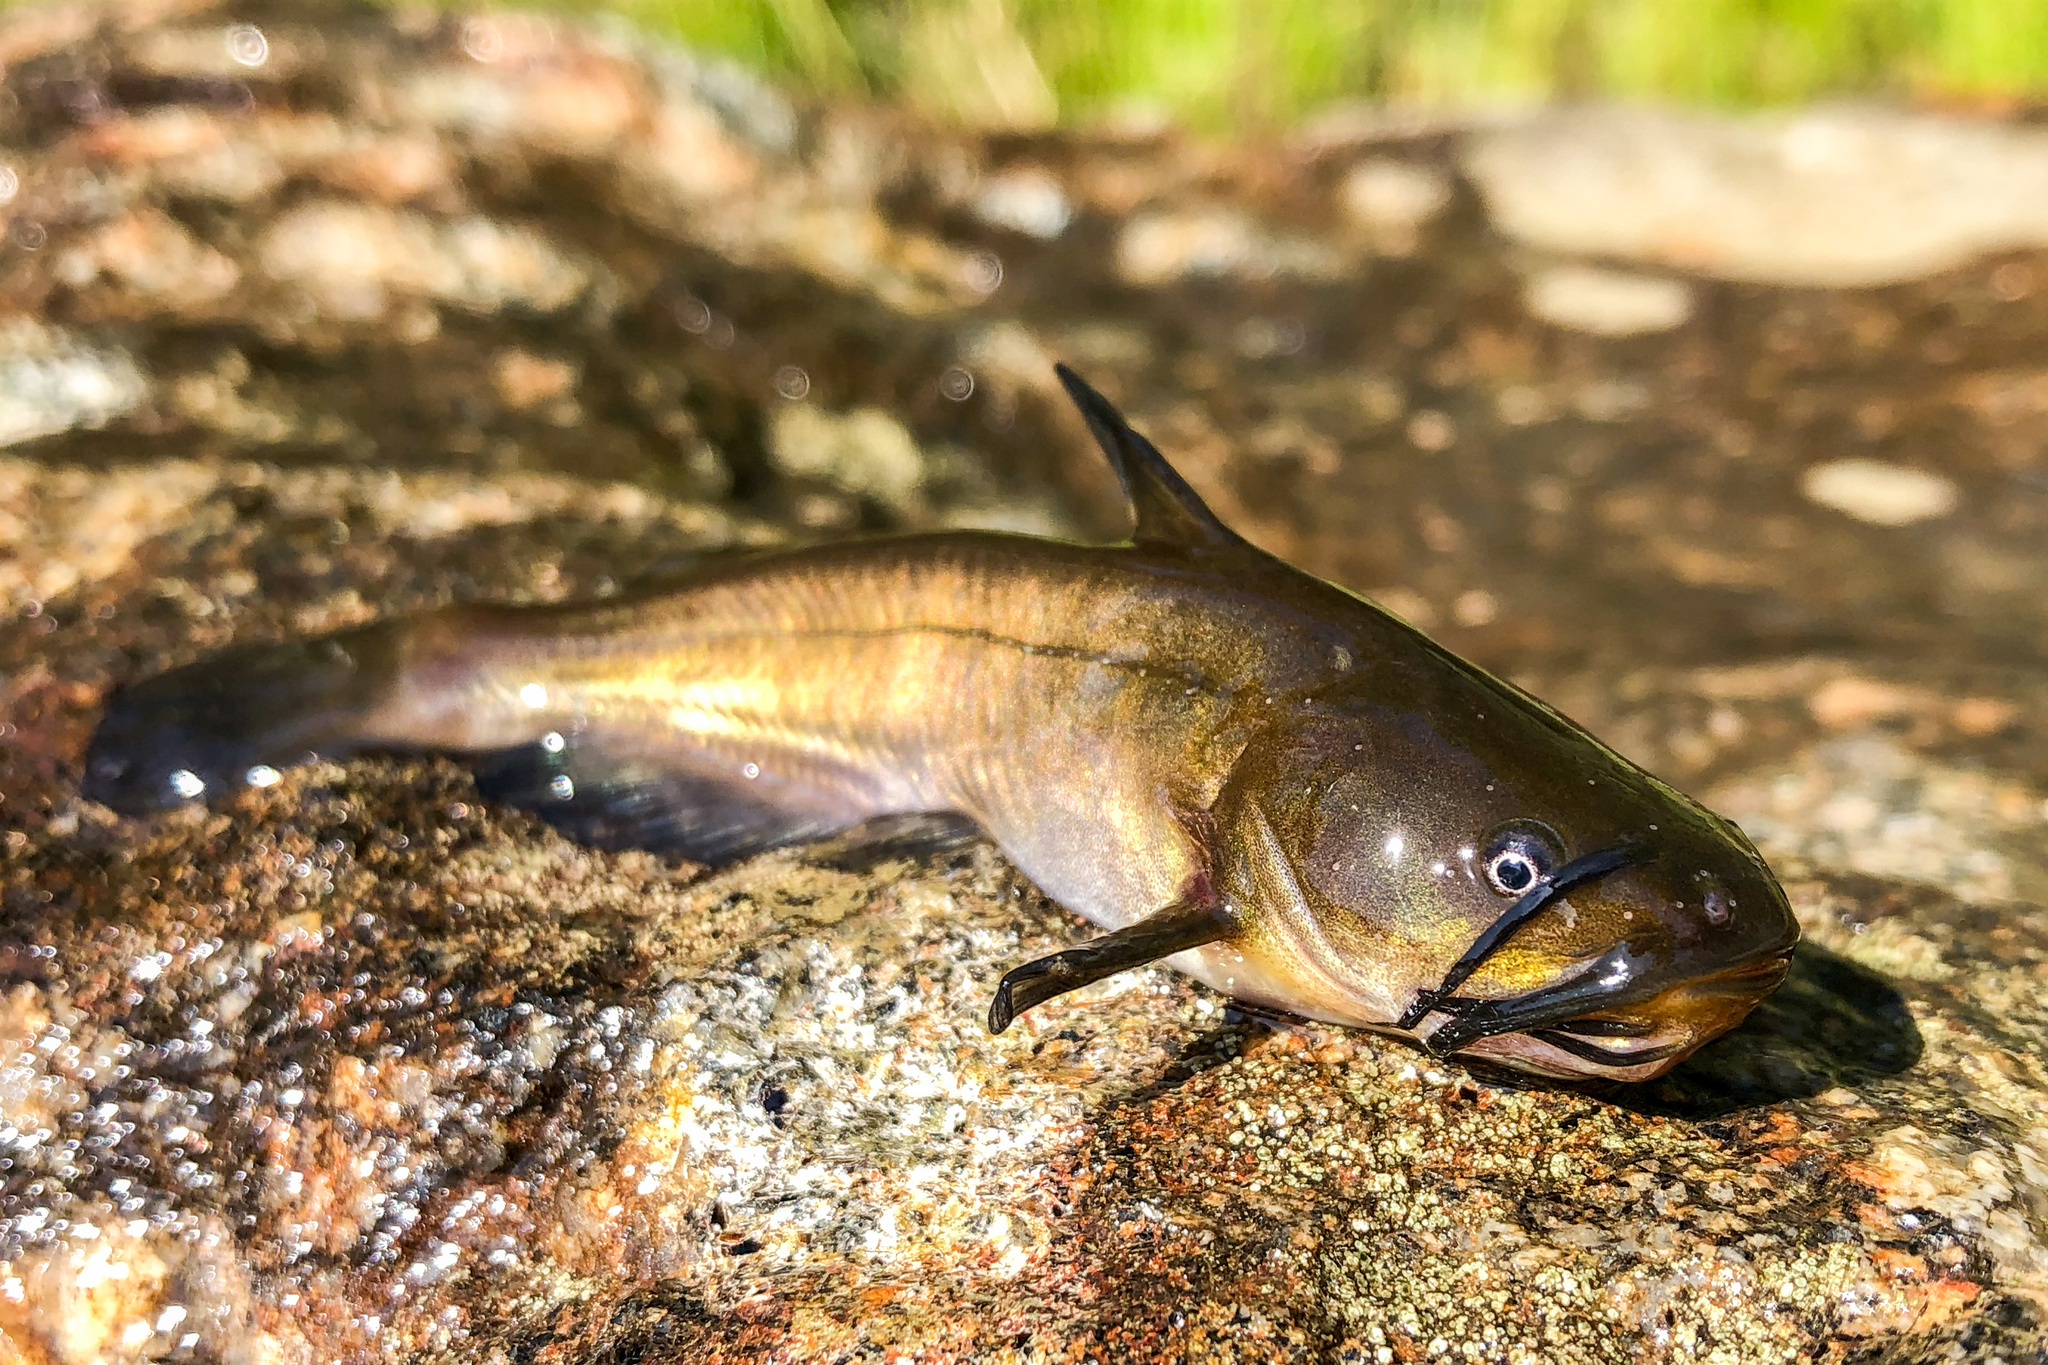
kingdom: Animalia
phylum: Chordata
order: Siluriformes
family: Ictaluridae
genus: Ameiurus
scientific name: Ameiurus nebulosus
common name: Brown bullhead
